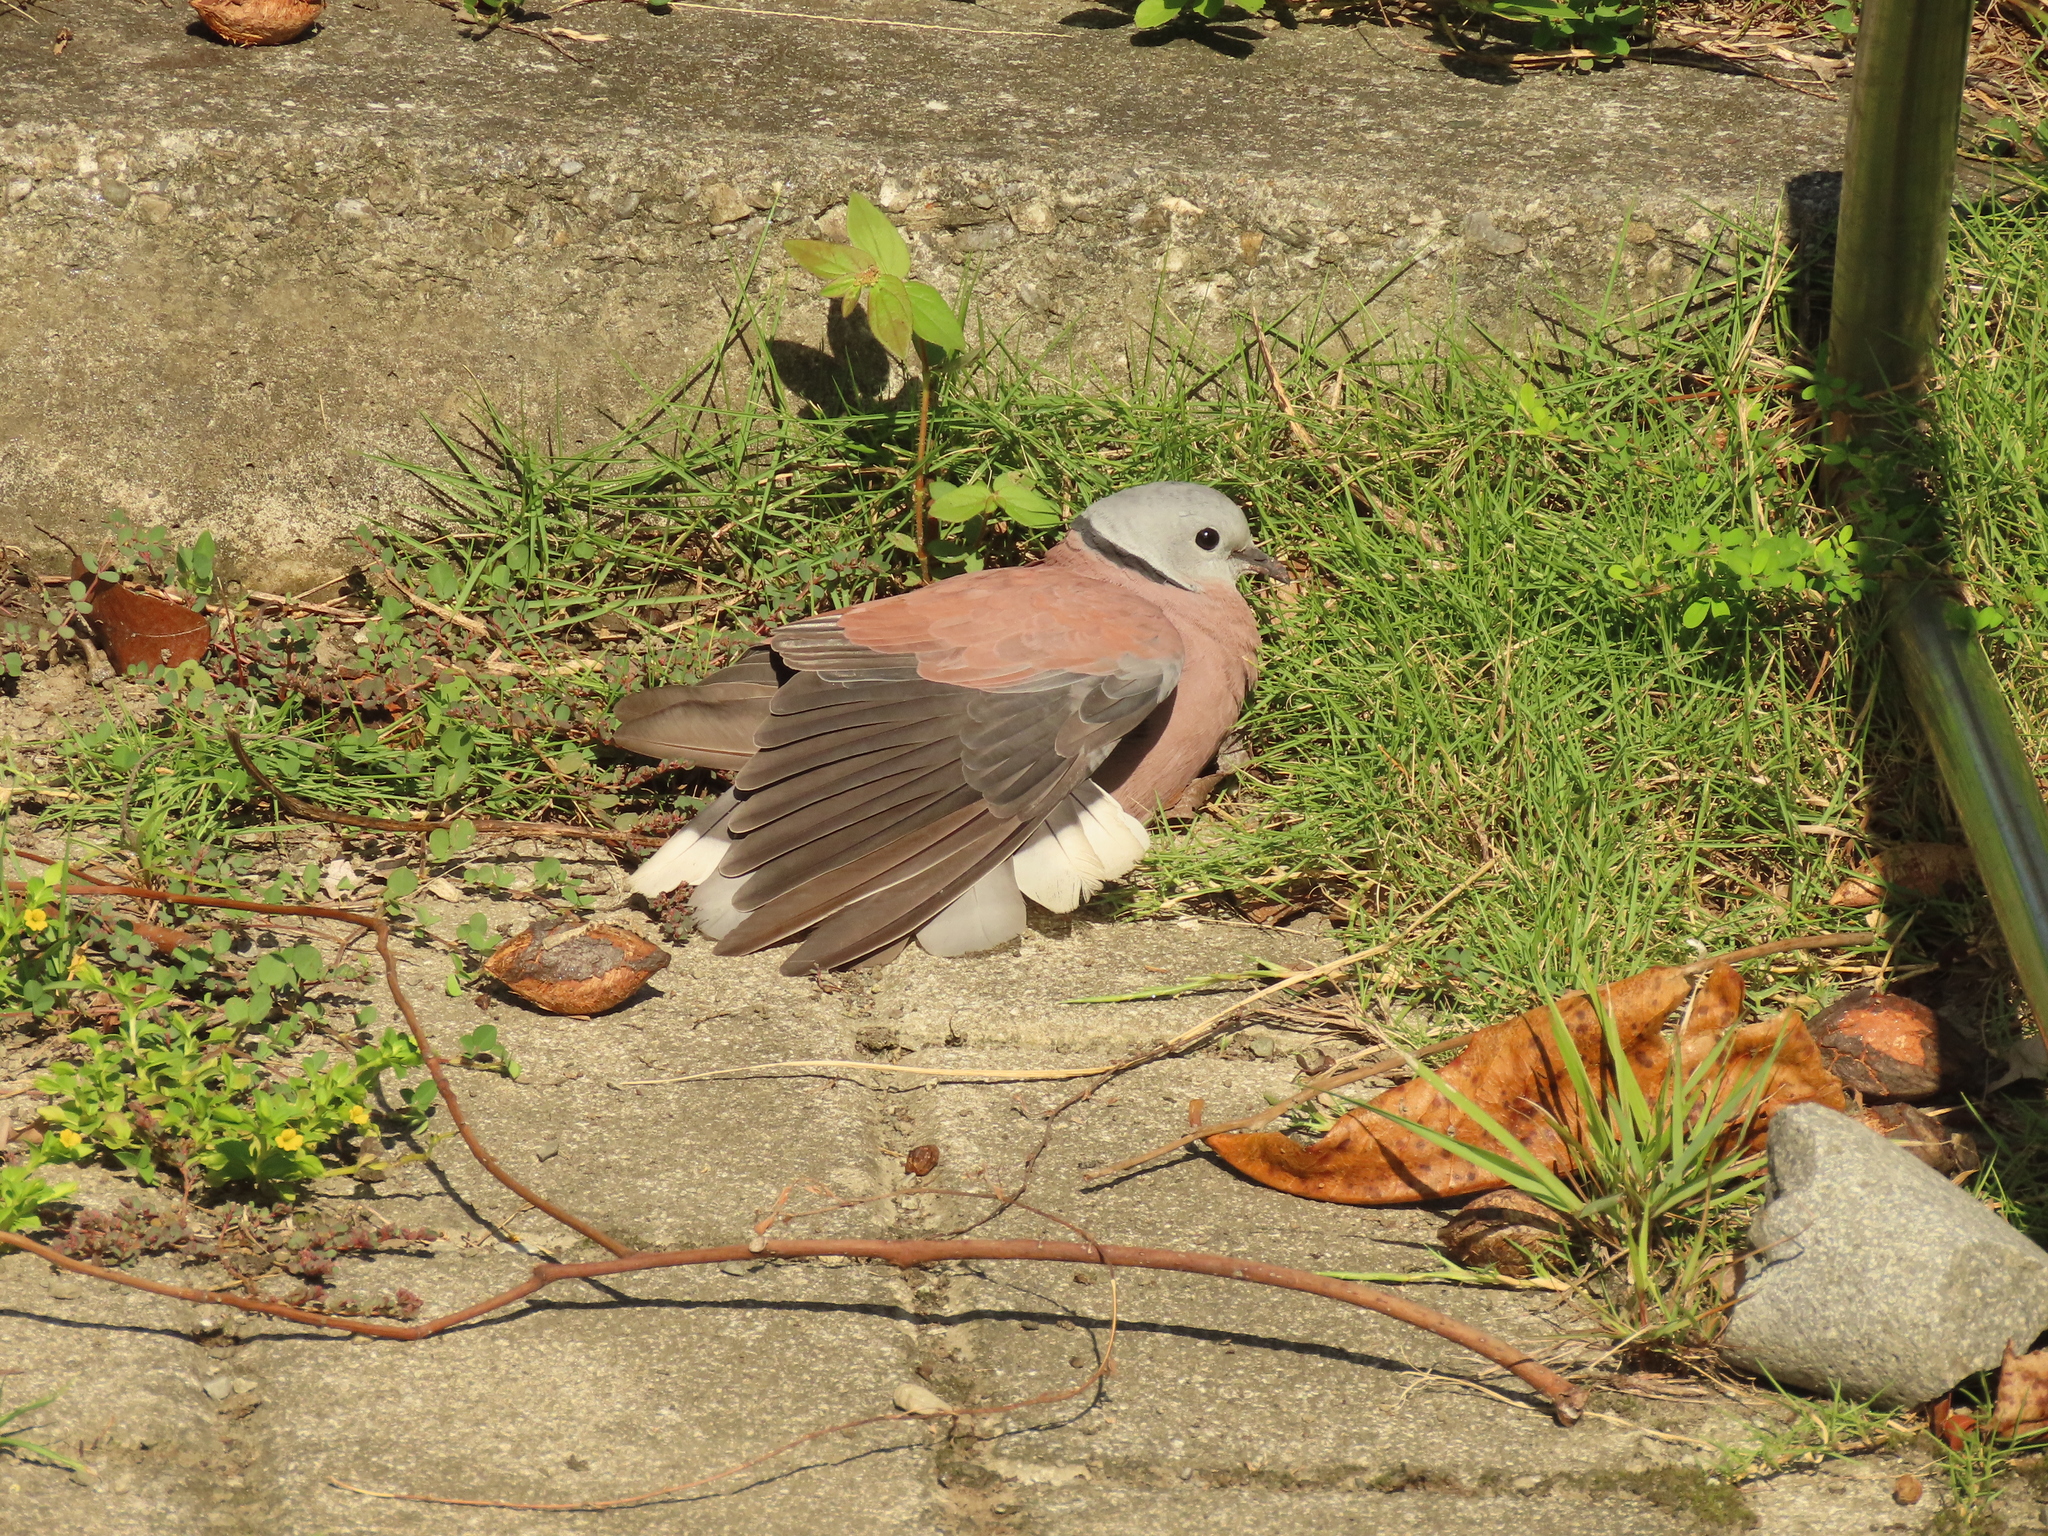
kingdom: Animalia
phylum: Chordata
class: Aves
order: Columbiformes
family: Columbidae
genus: Streptopelia
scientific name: Streptopelia tranquebarica
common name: Red turtle dove
